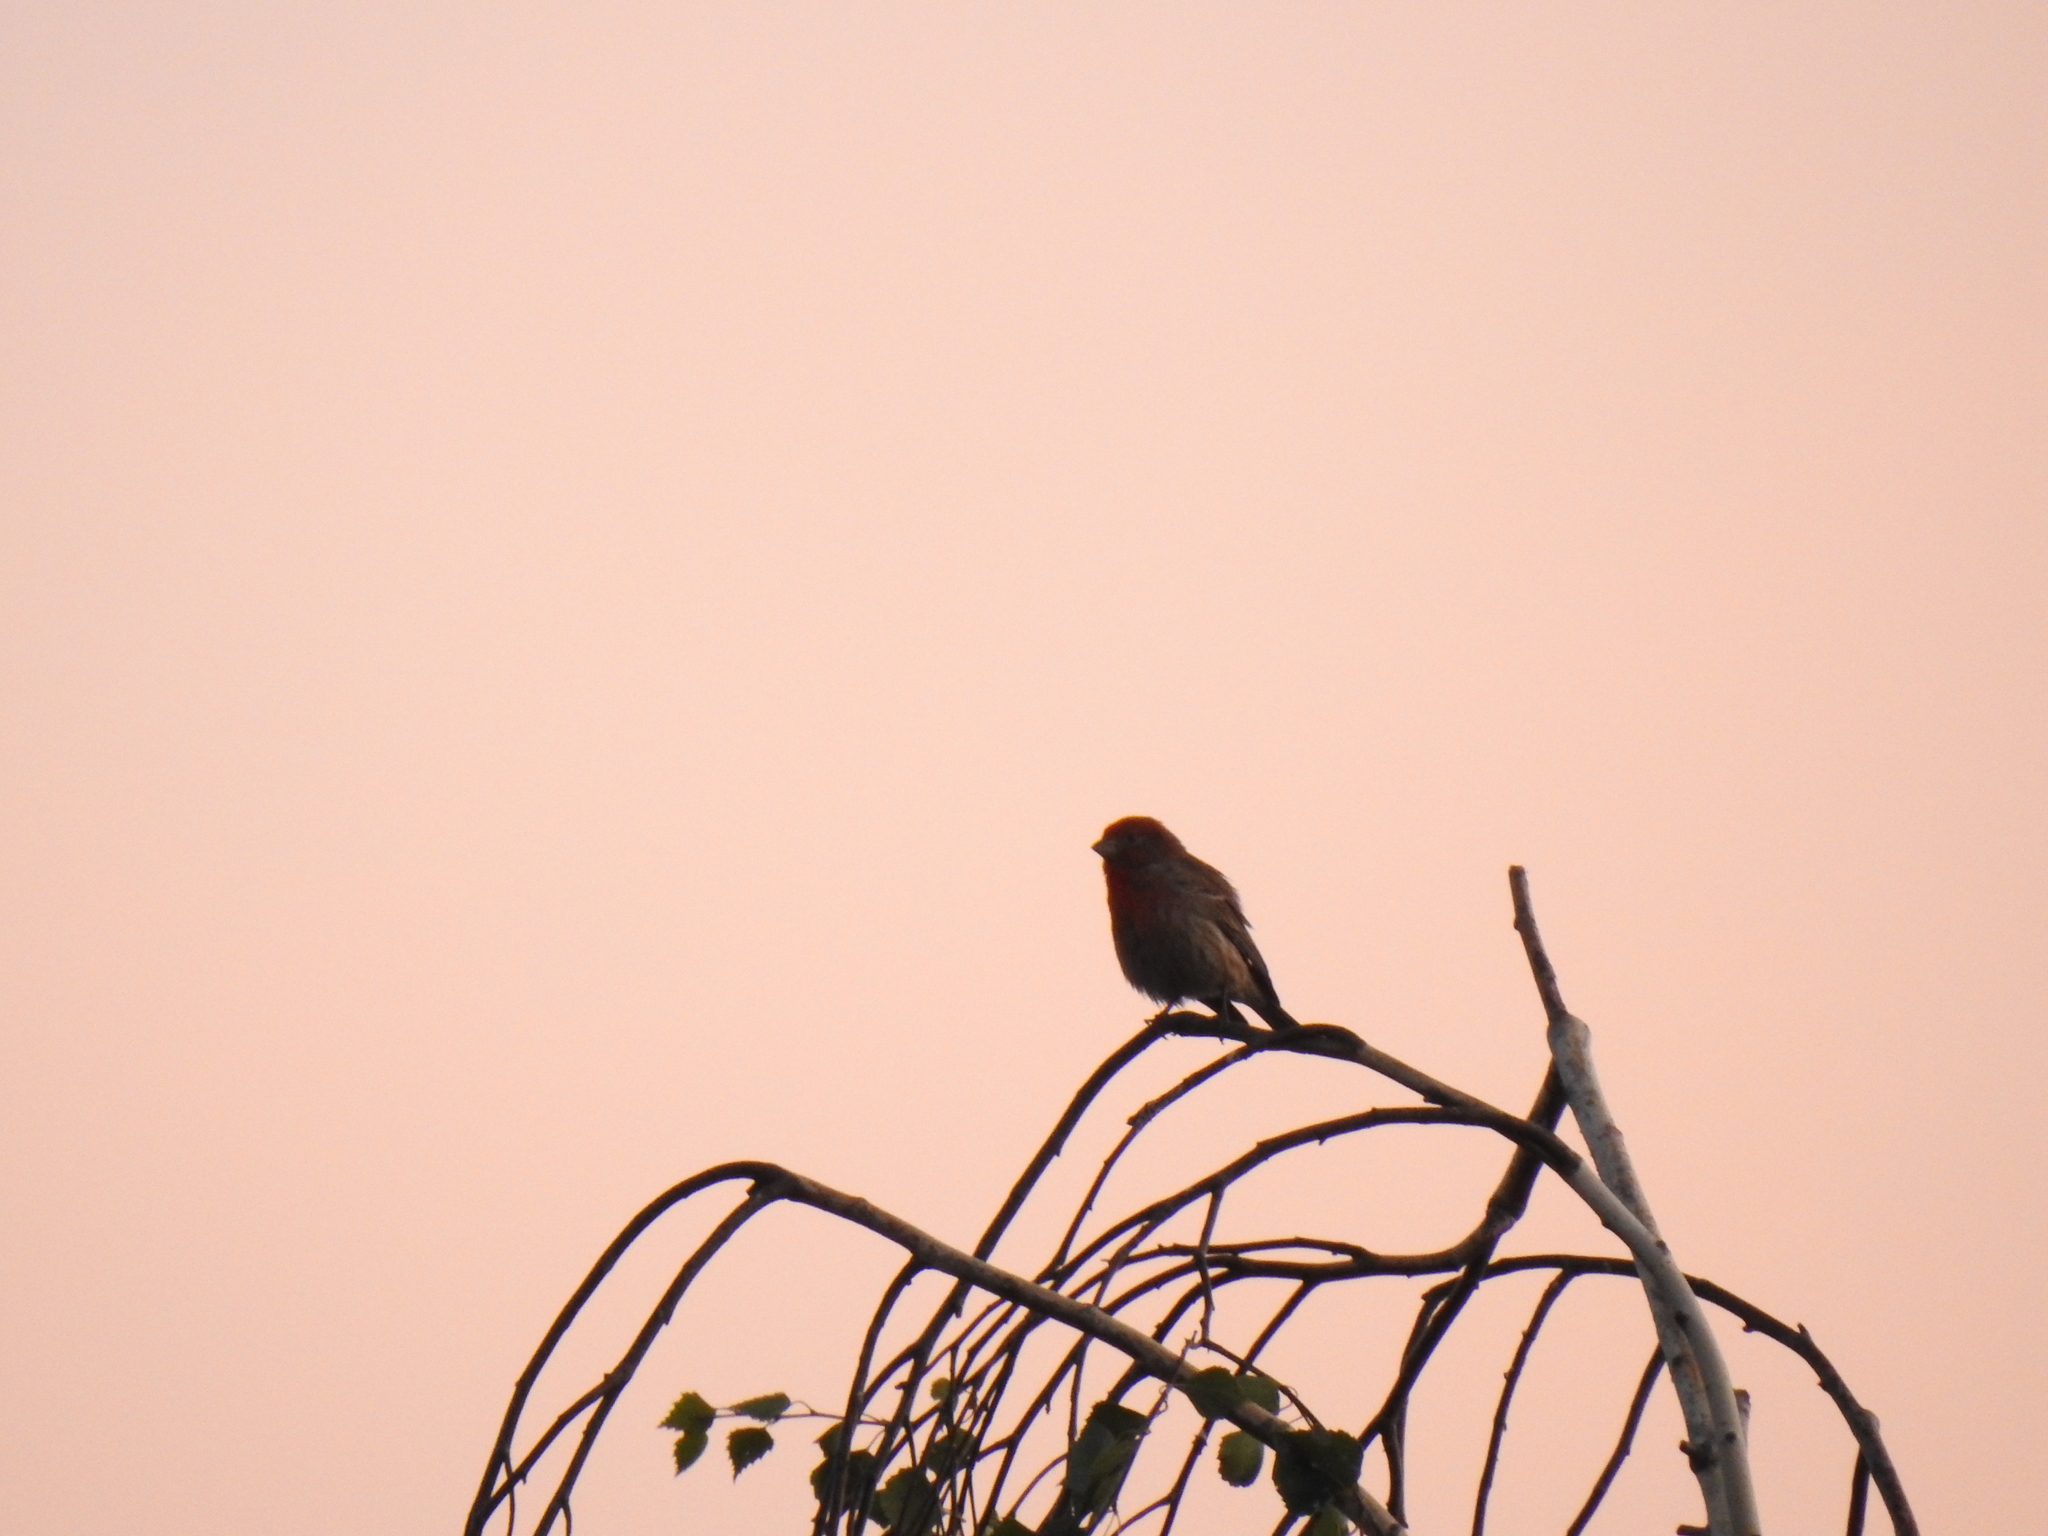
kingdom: Animalia
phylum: Chordata
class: Aves
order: Passeriformes
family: Fringillidae
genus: Haemorhous
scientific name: Haemorhous mexicanus
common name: House finch
